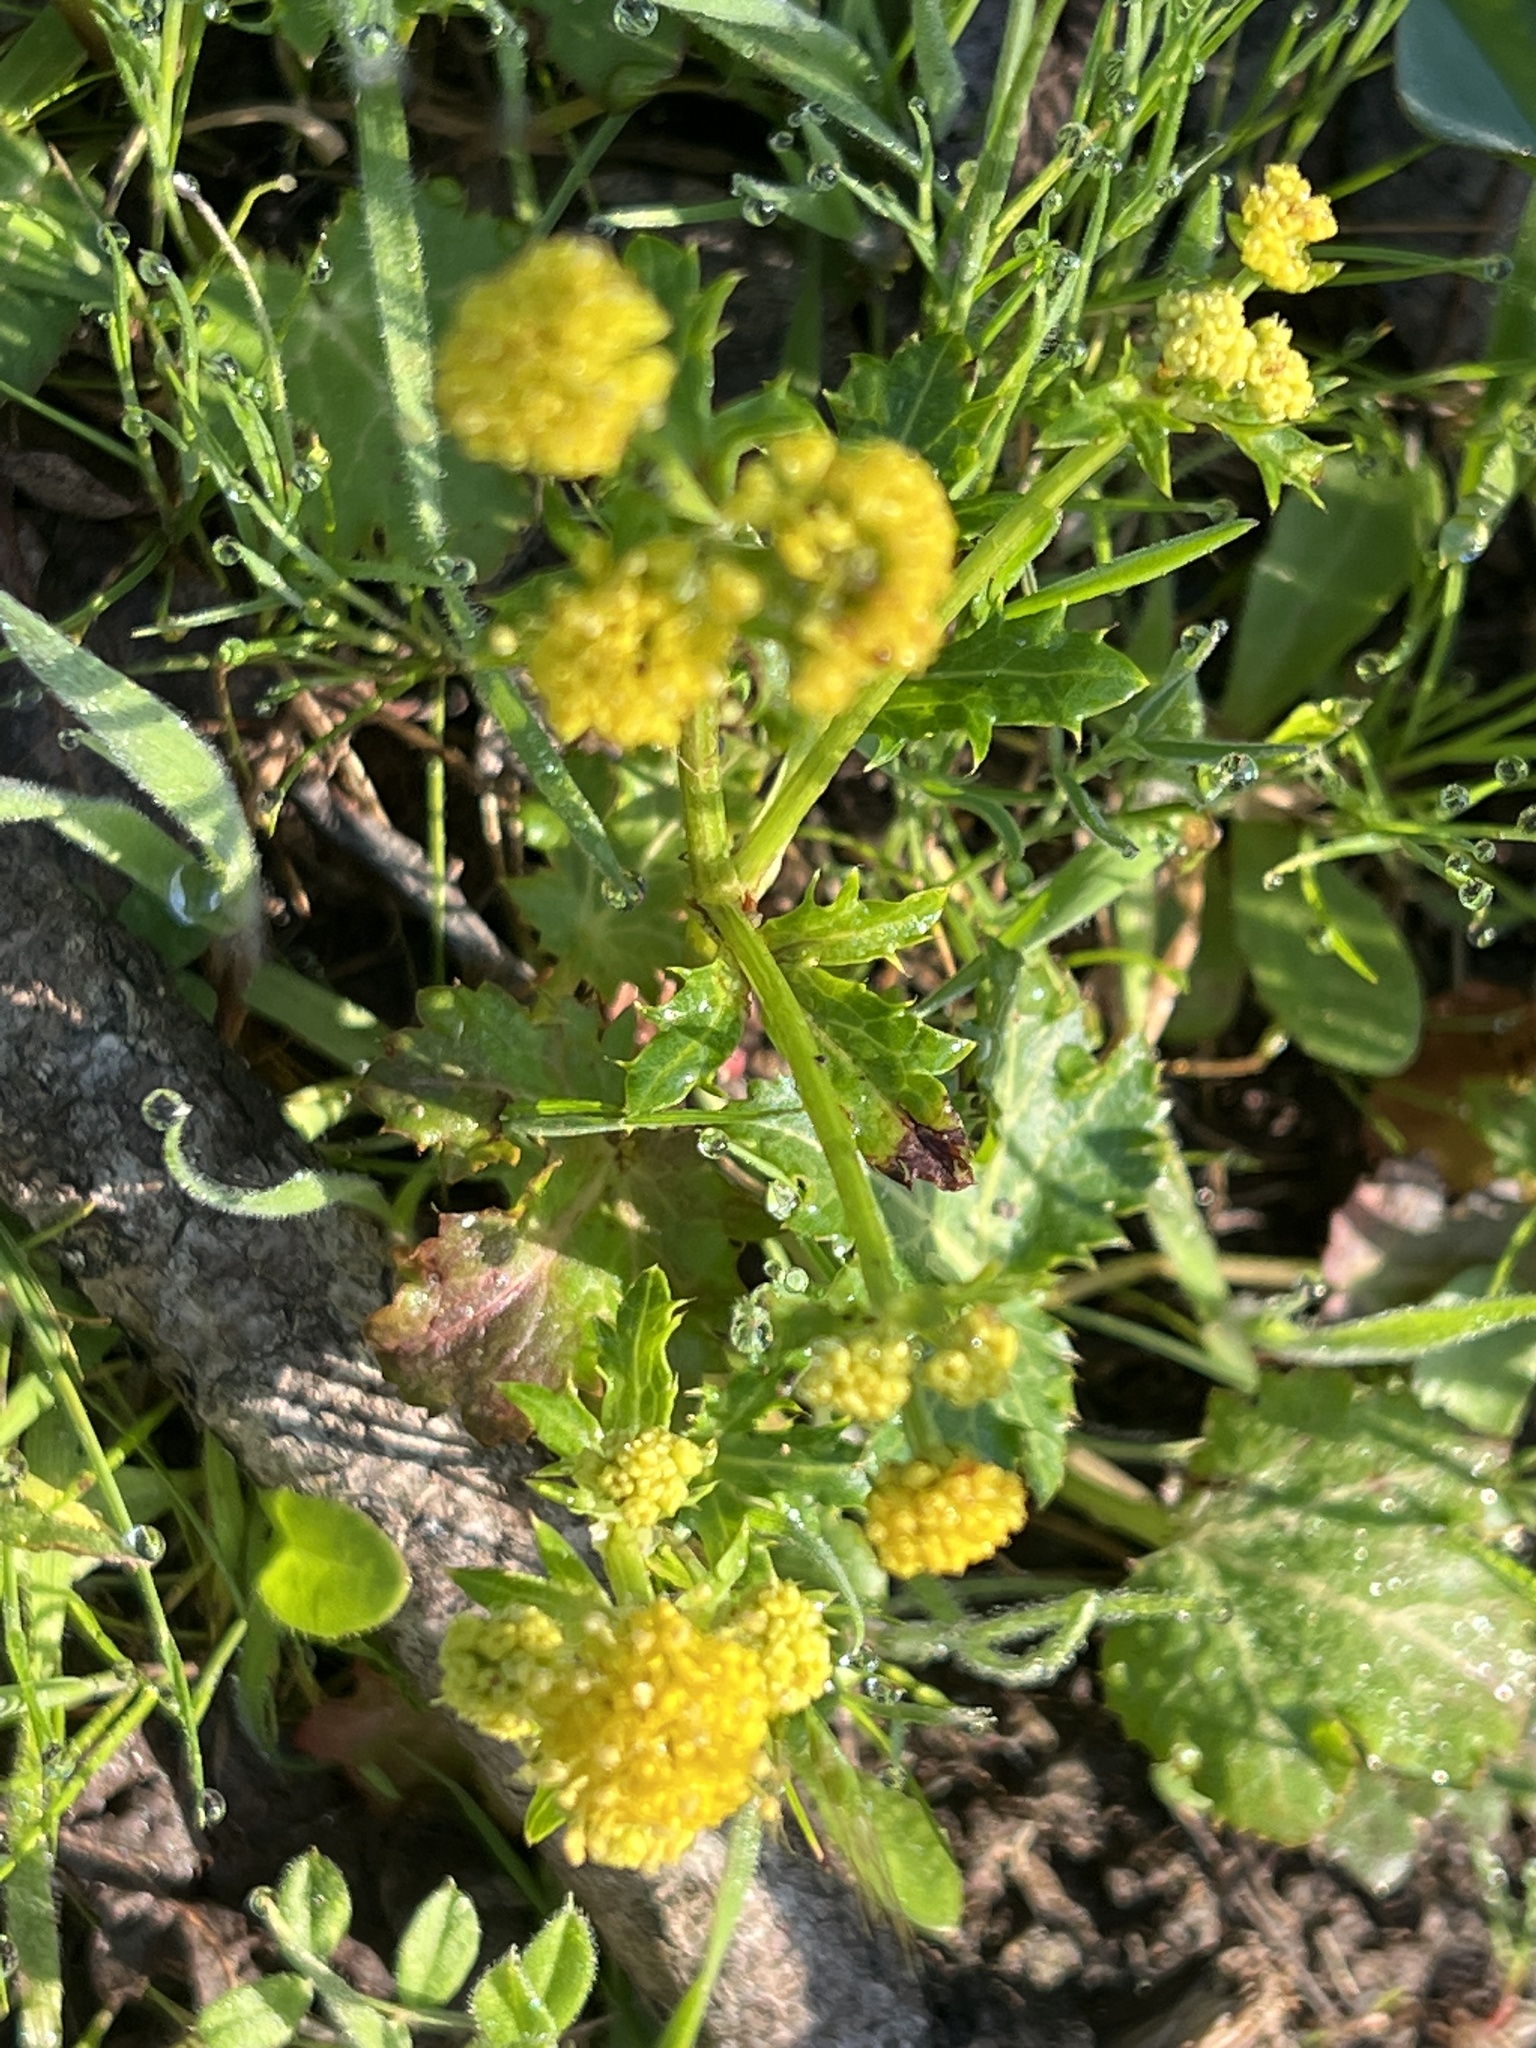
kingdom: Plantae
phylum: Tracheophyta
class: Magnoliopsida
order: Apiales
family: Apiaceae
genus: Sanicula
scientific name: Sanicula crassicaulis
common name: Western snakeroot
